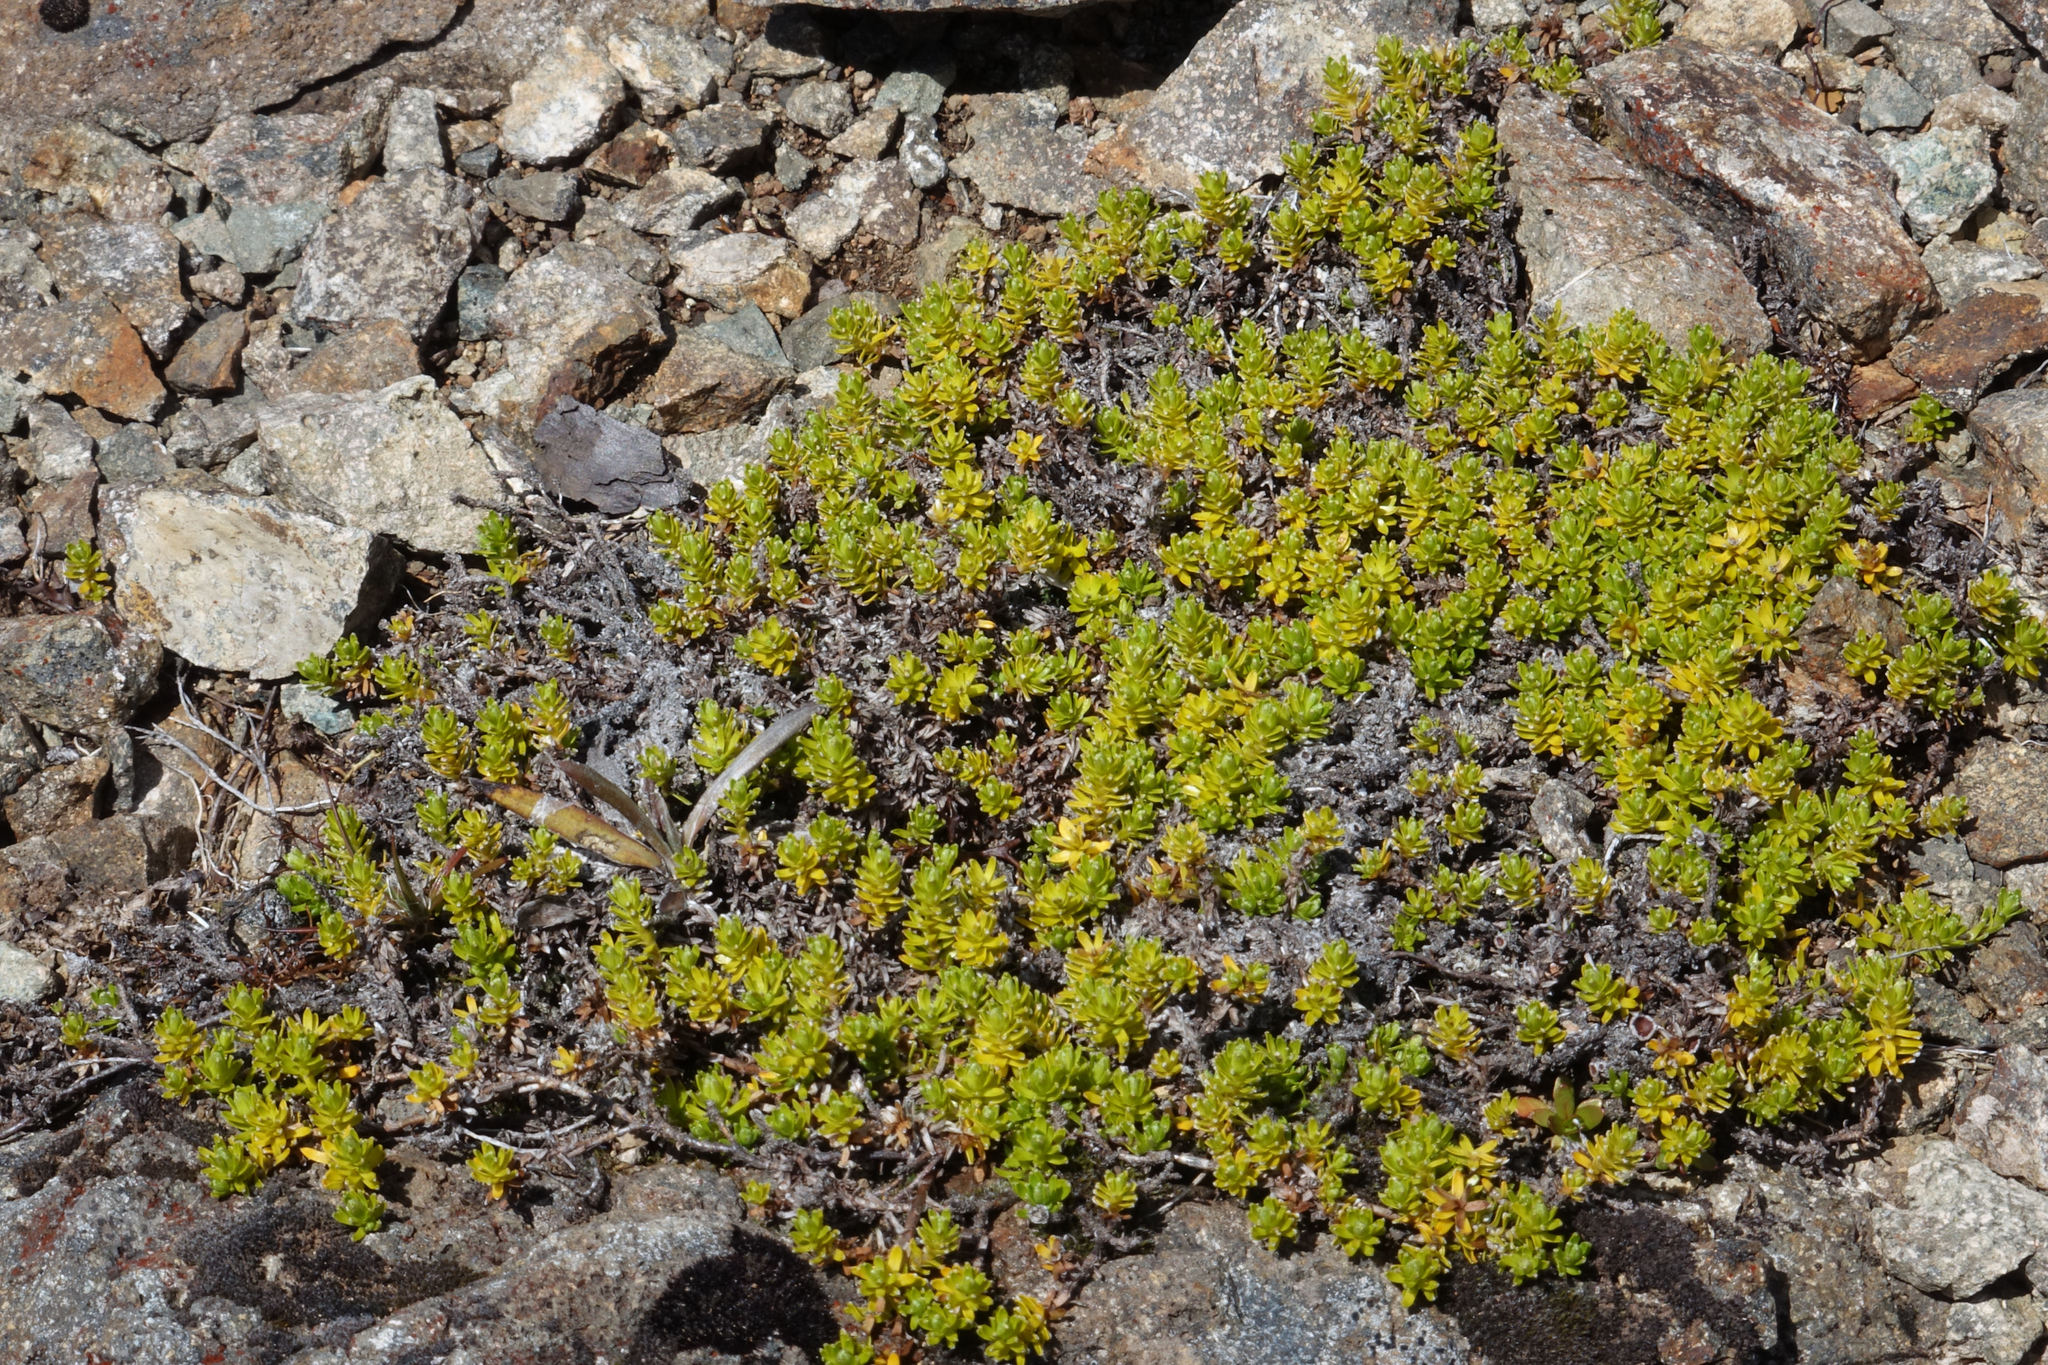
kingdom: Plantae
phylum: Tracheophyta
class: Magnoliopsida
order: Asterales
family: Asteraceae
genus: Raoulia
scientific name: Raoulia glabra
